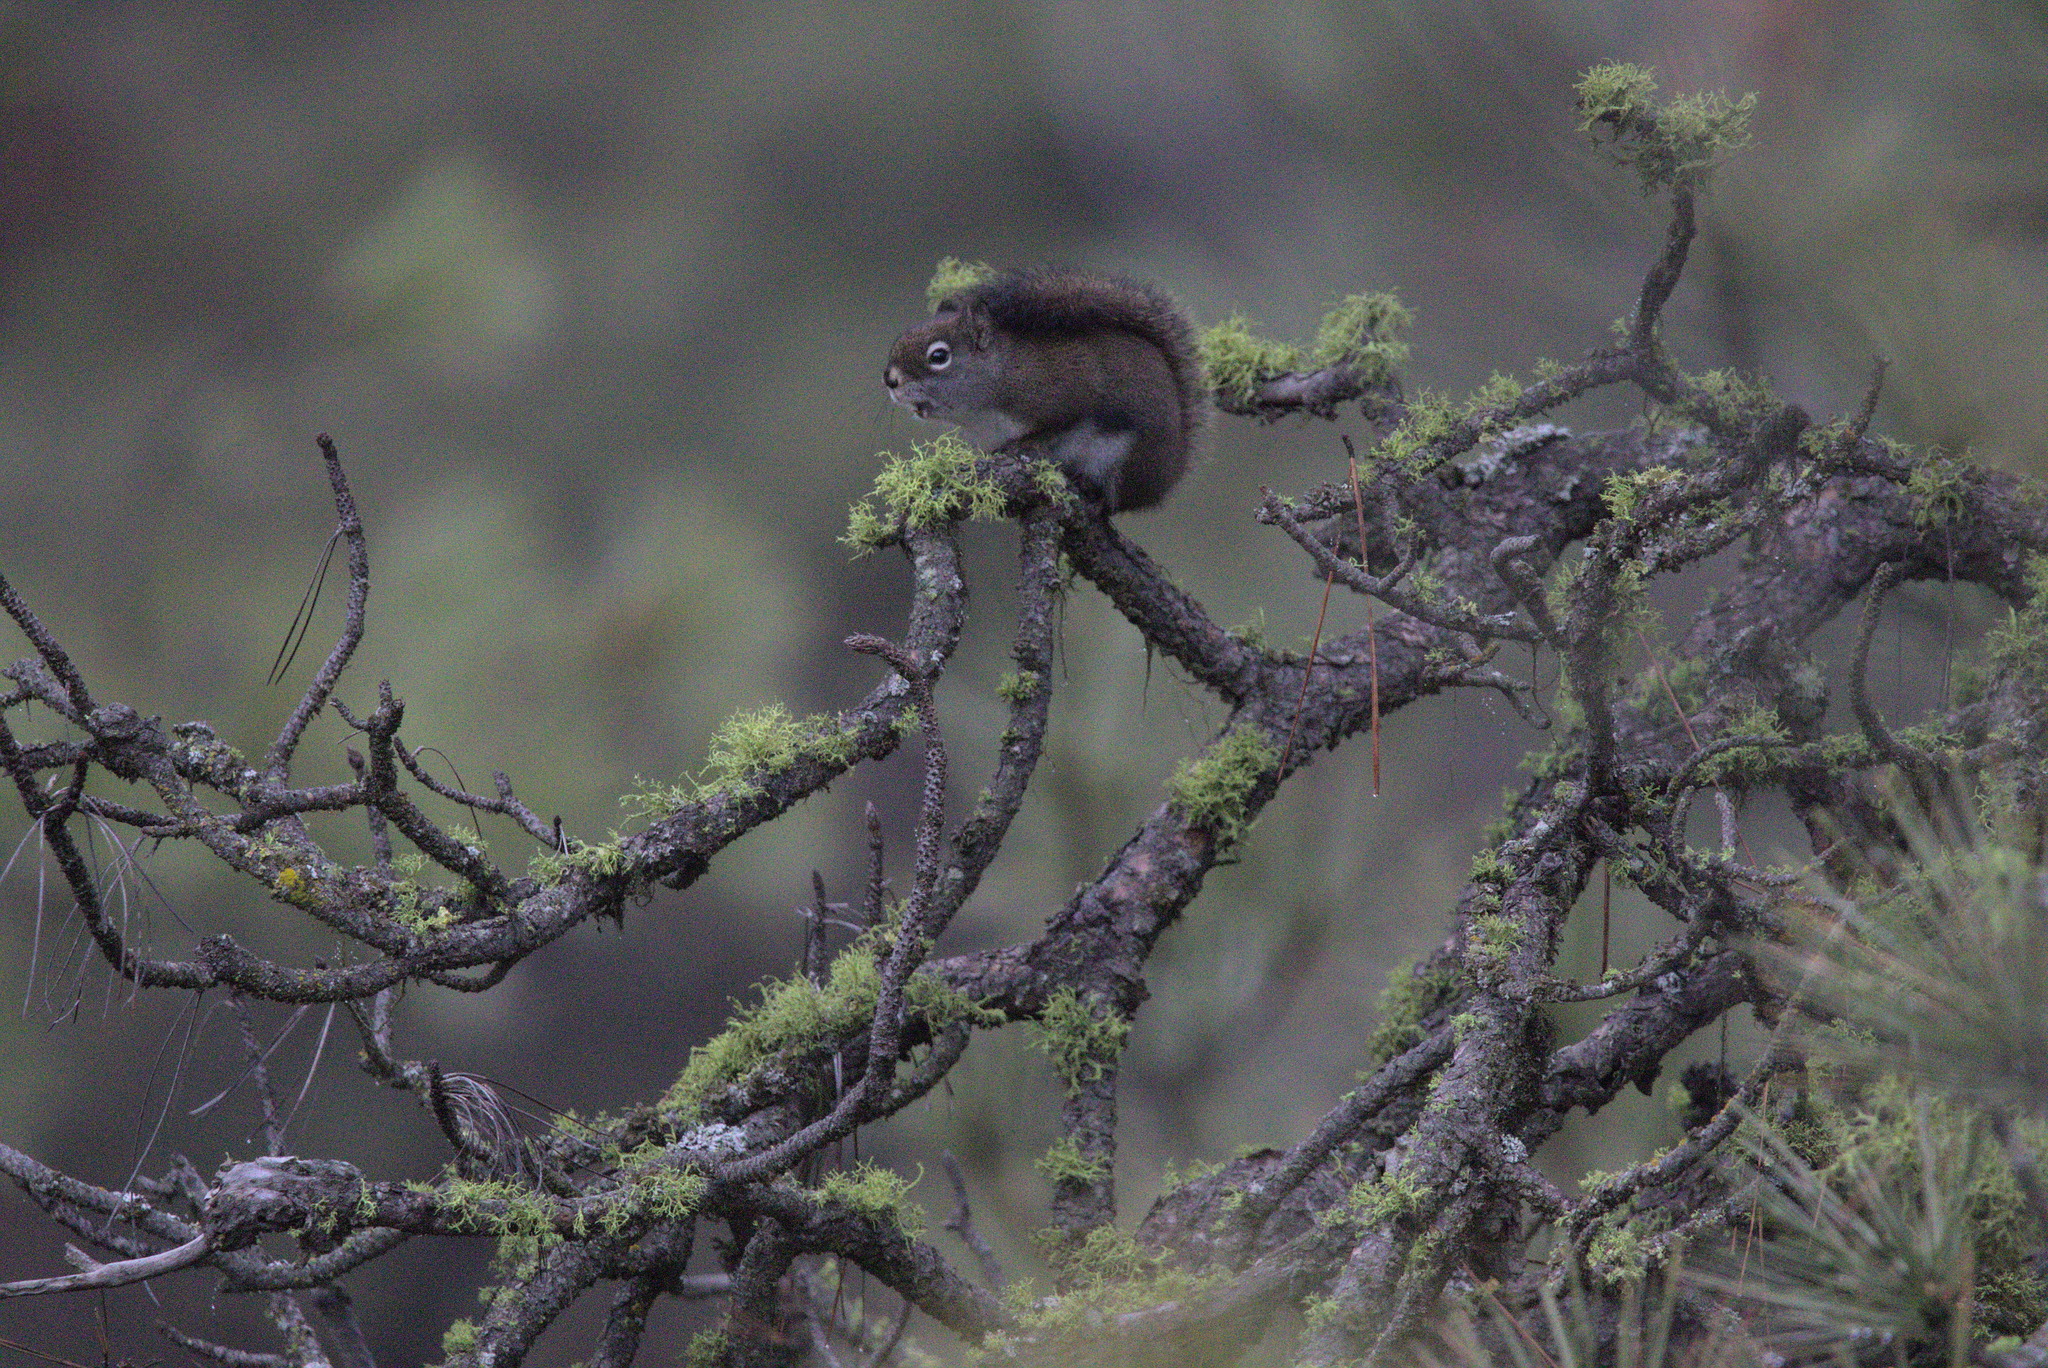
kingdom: Animalia
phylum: Chordata
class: Mammalia
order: Rodentia
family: Sciuridae
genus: Tamiasciurus
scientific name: Tamiasciurus hudsonicus
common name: Red squirrel
